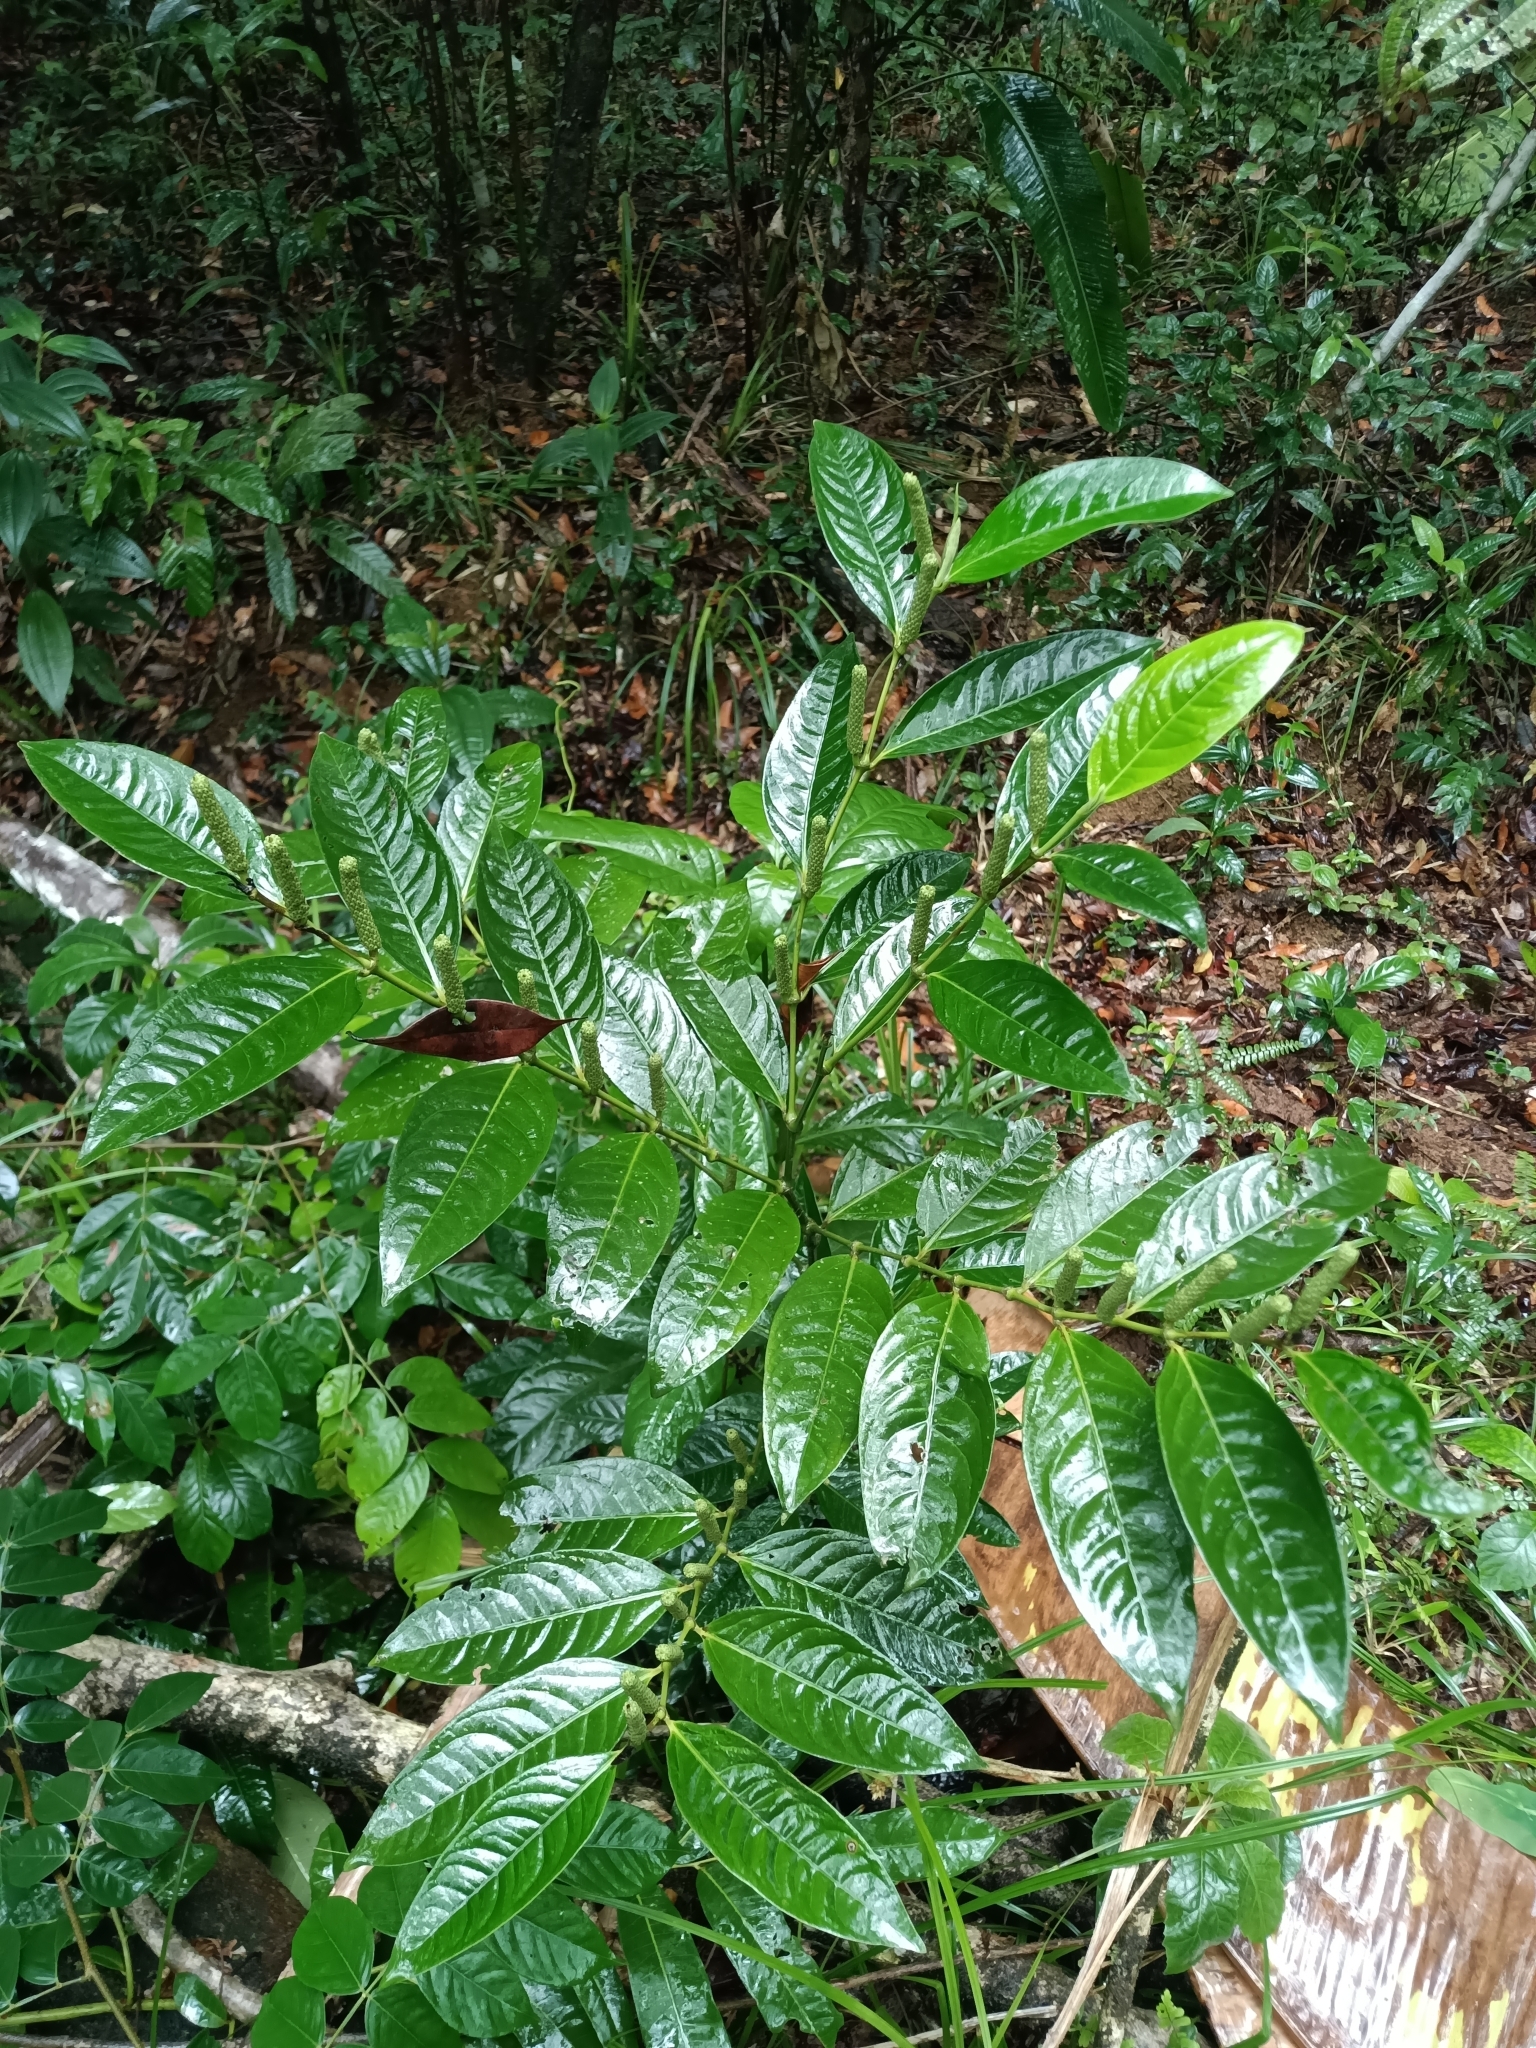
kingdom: Plantae
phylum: Tracheophyta
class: Magnoliopsida
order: Piperales
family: Piperaceae
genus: Piper
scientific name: Piper
